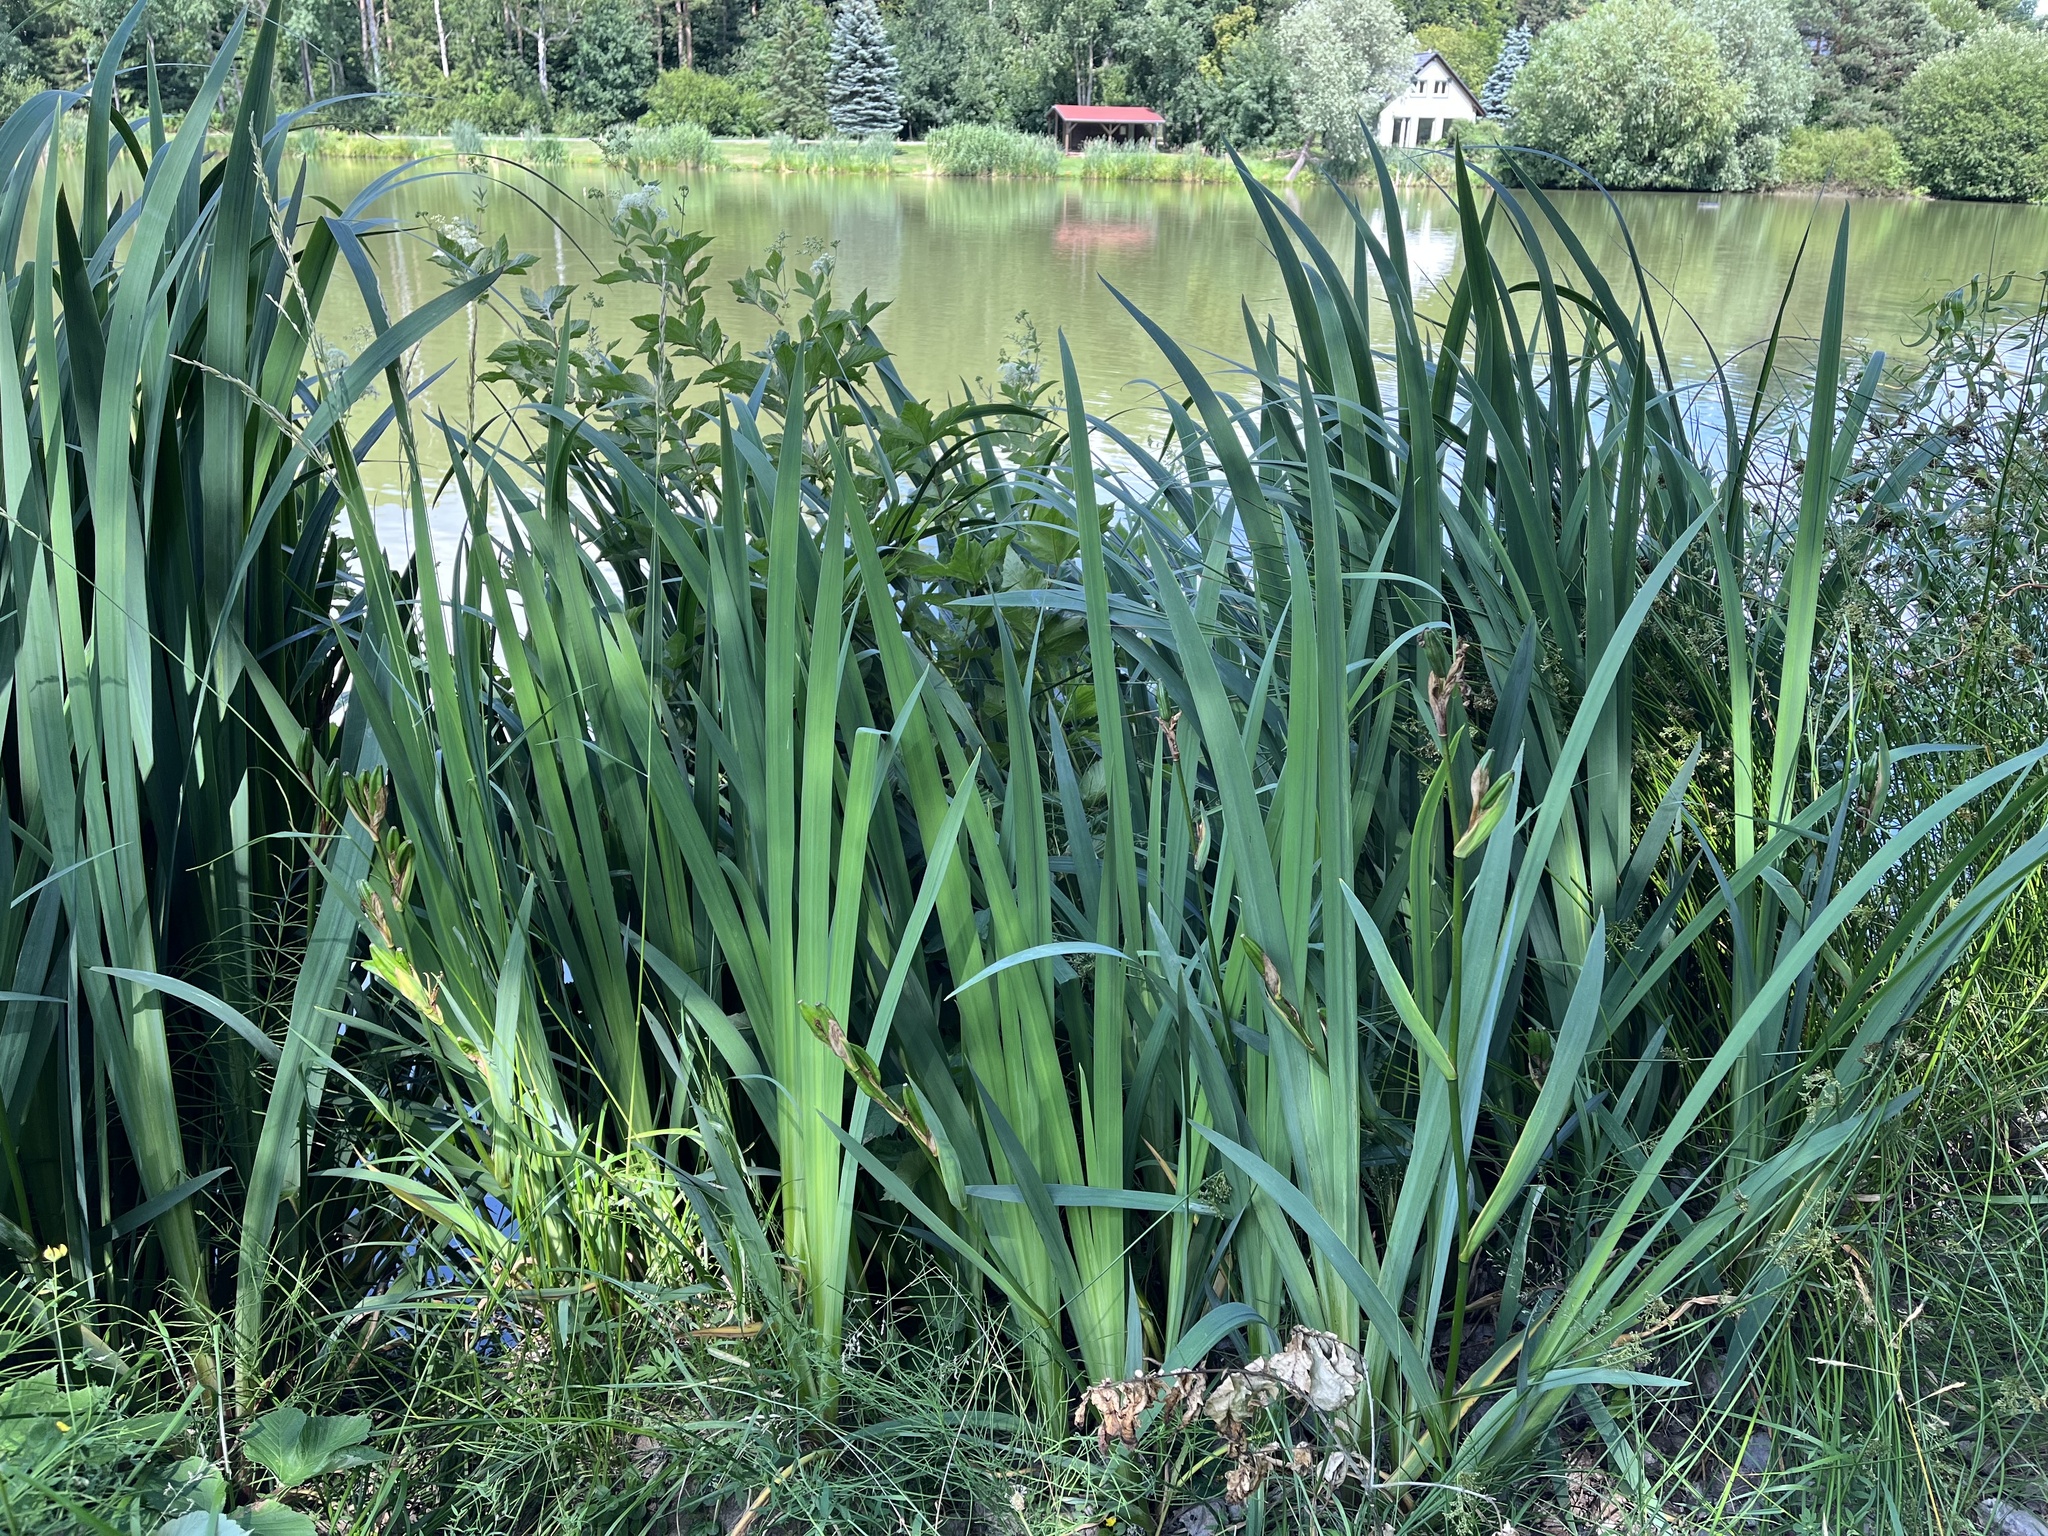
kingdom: Plantae
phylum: Tracheophyta
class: Liliopsida
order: Asparagales
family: Iridaceae
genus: Iris
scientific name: Iris pseudacorus
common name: Yellow flag
